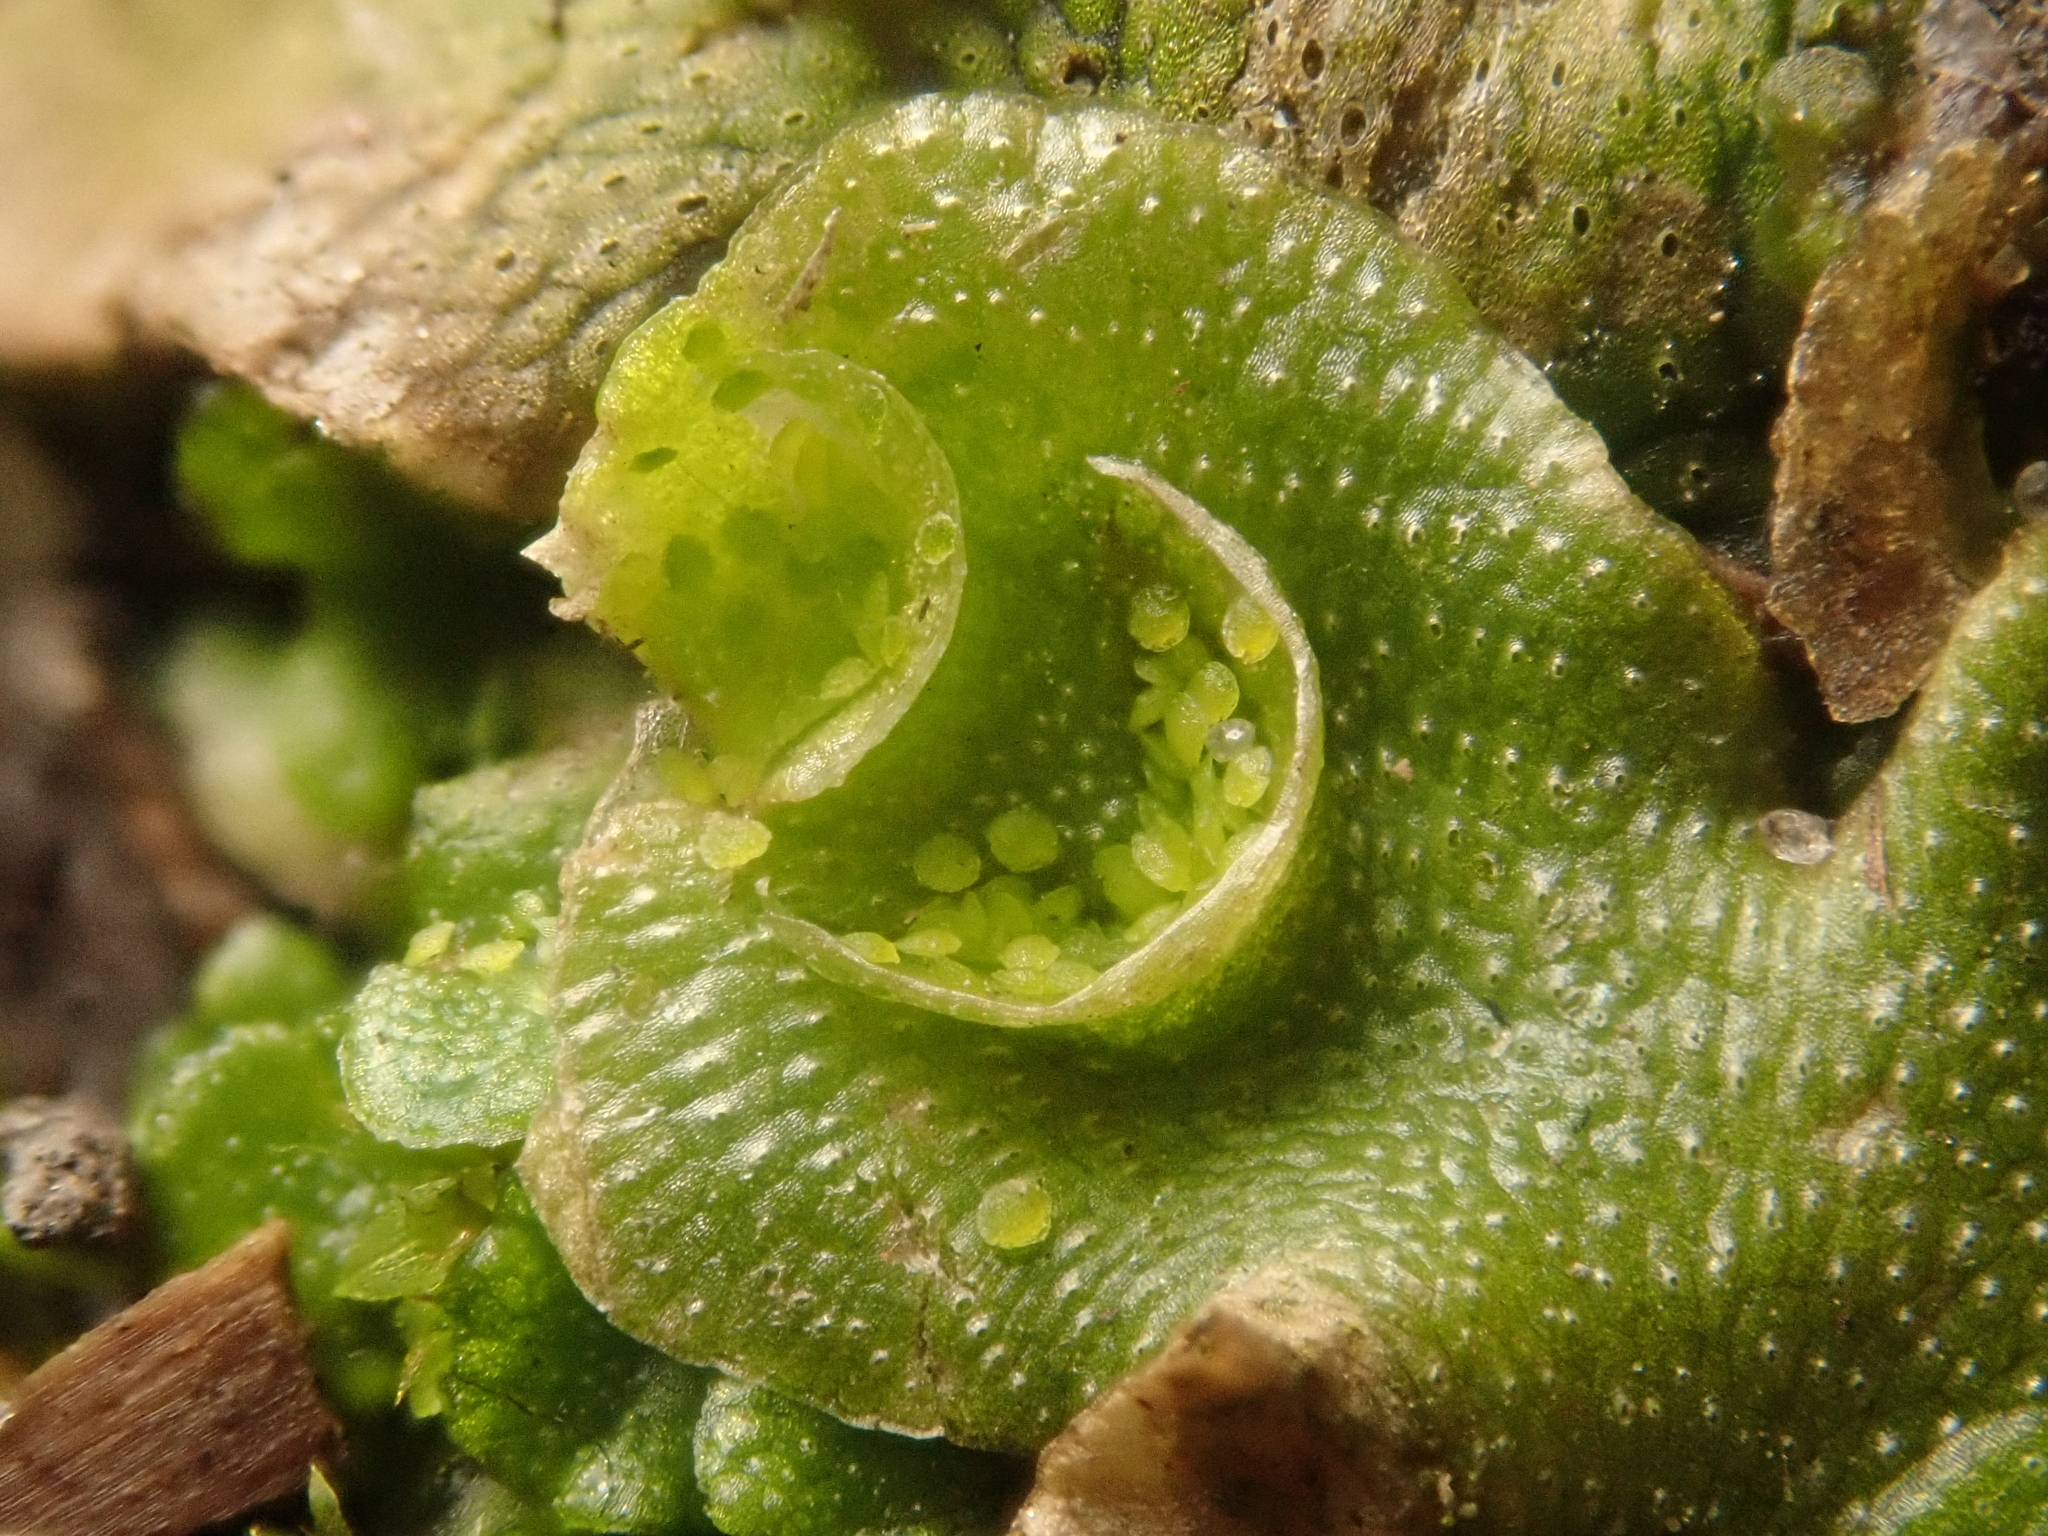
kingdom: Plantae
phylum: Marchantiophyta
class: Marchantiopsida
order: Lunulariales
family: Lunulariaceae
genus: Lunularia
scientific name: Lunularia cruciata
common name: Crescent-cup liverwort
